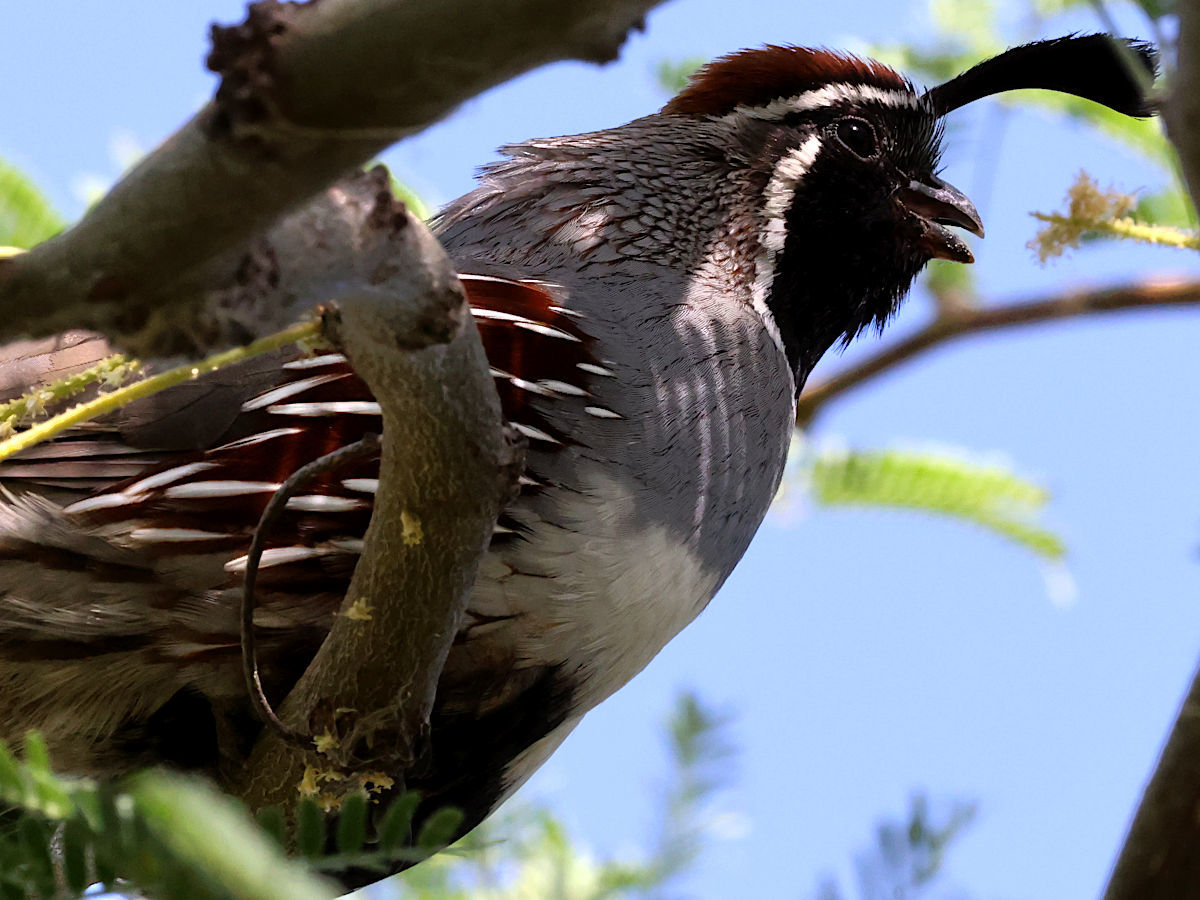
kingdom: Animalia
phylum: Chordata
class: Aves
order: Galliformes
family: Odontophoridae
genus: Callipepla
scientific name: Callipepla gambelii
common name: Gambel's quail
